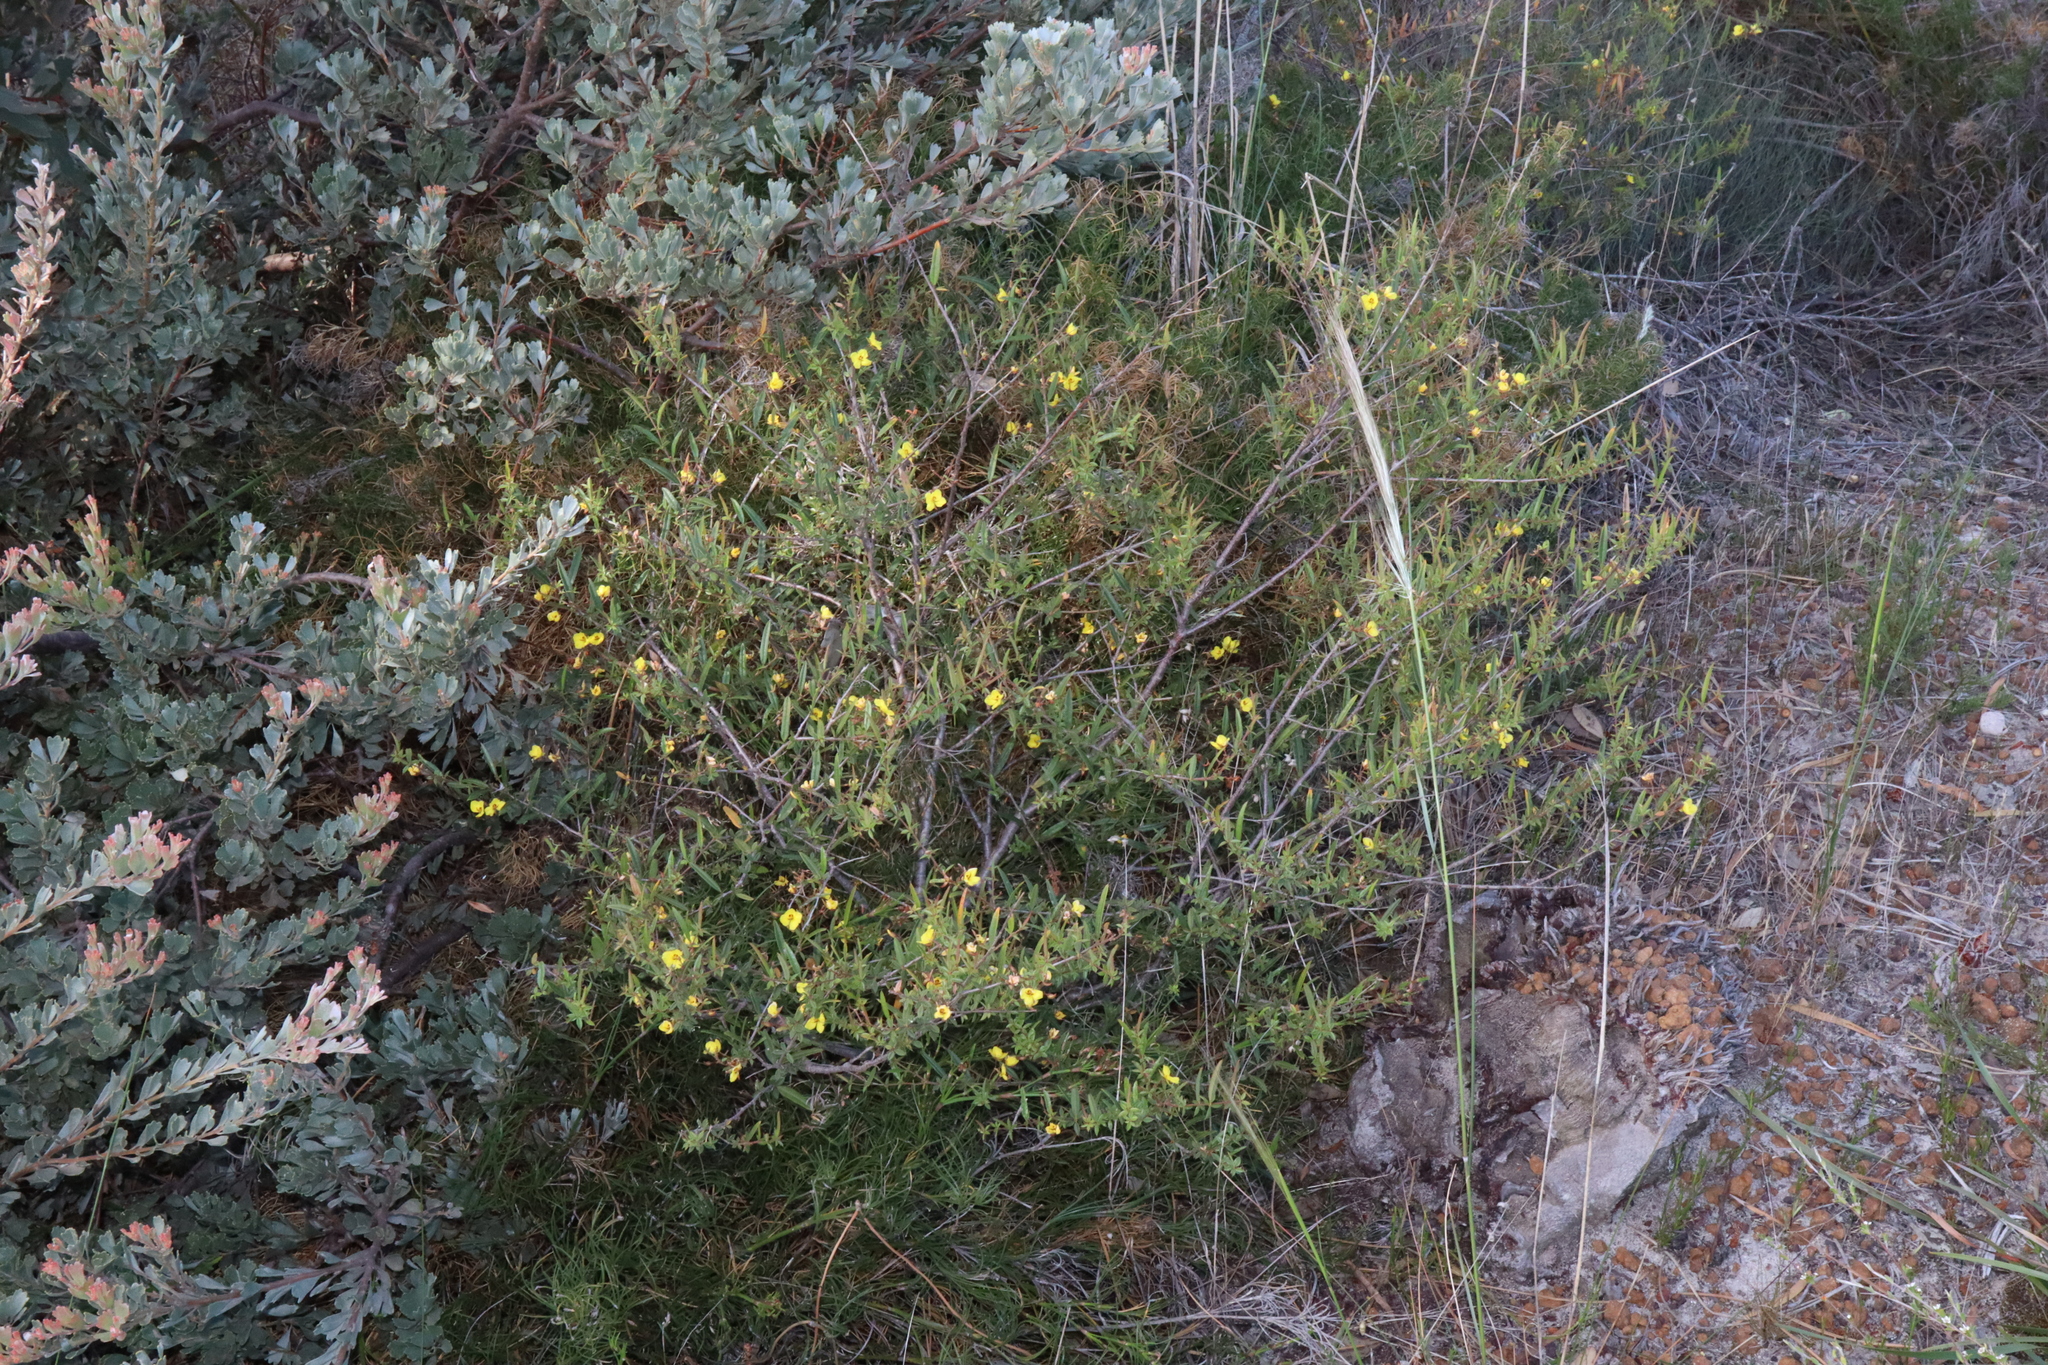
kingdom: Plantae
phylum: Tracheophyta
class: Magnoliopsida
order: Fabales
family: Fabaceae
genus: Labichea
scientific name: Labichea lanceolata
